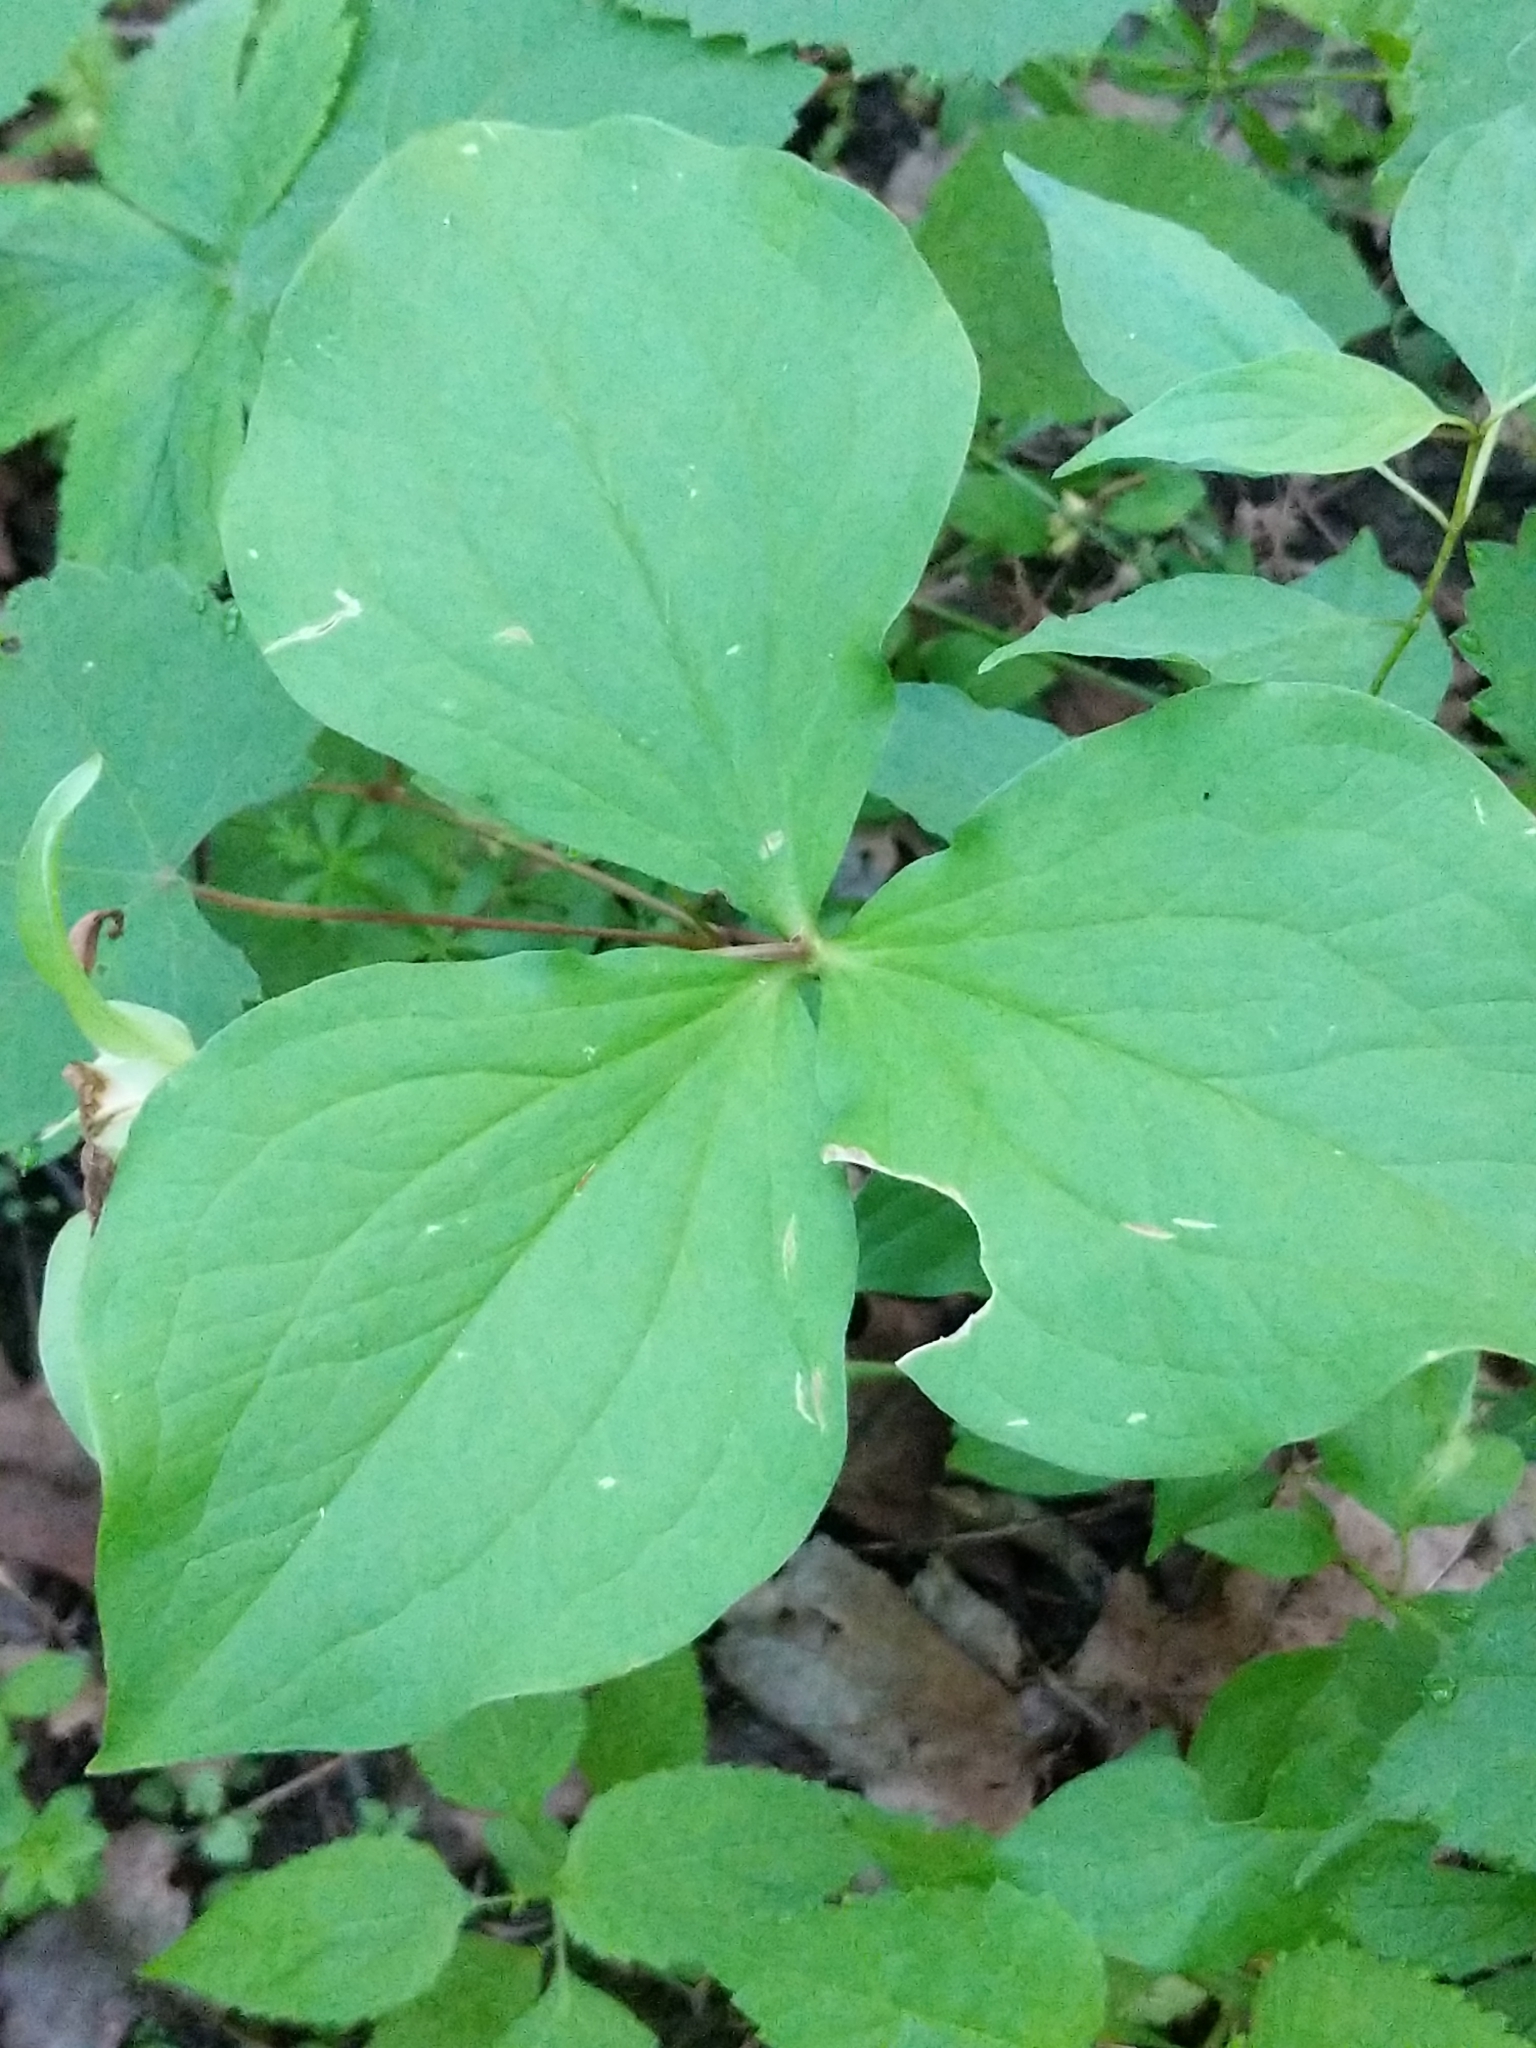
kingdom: Plantae
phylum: Tracheophyta
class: Liliopsida
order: Liliales
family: Melanthiaceae
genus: Trillium
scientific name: Trillium grandiflorum
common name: Great white trillium
